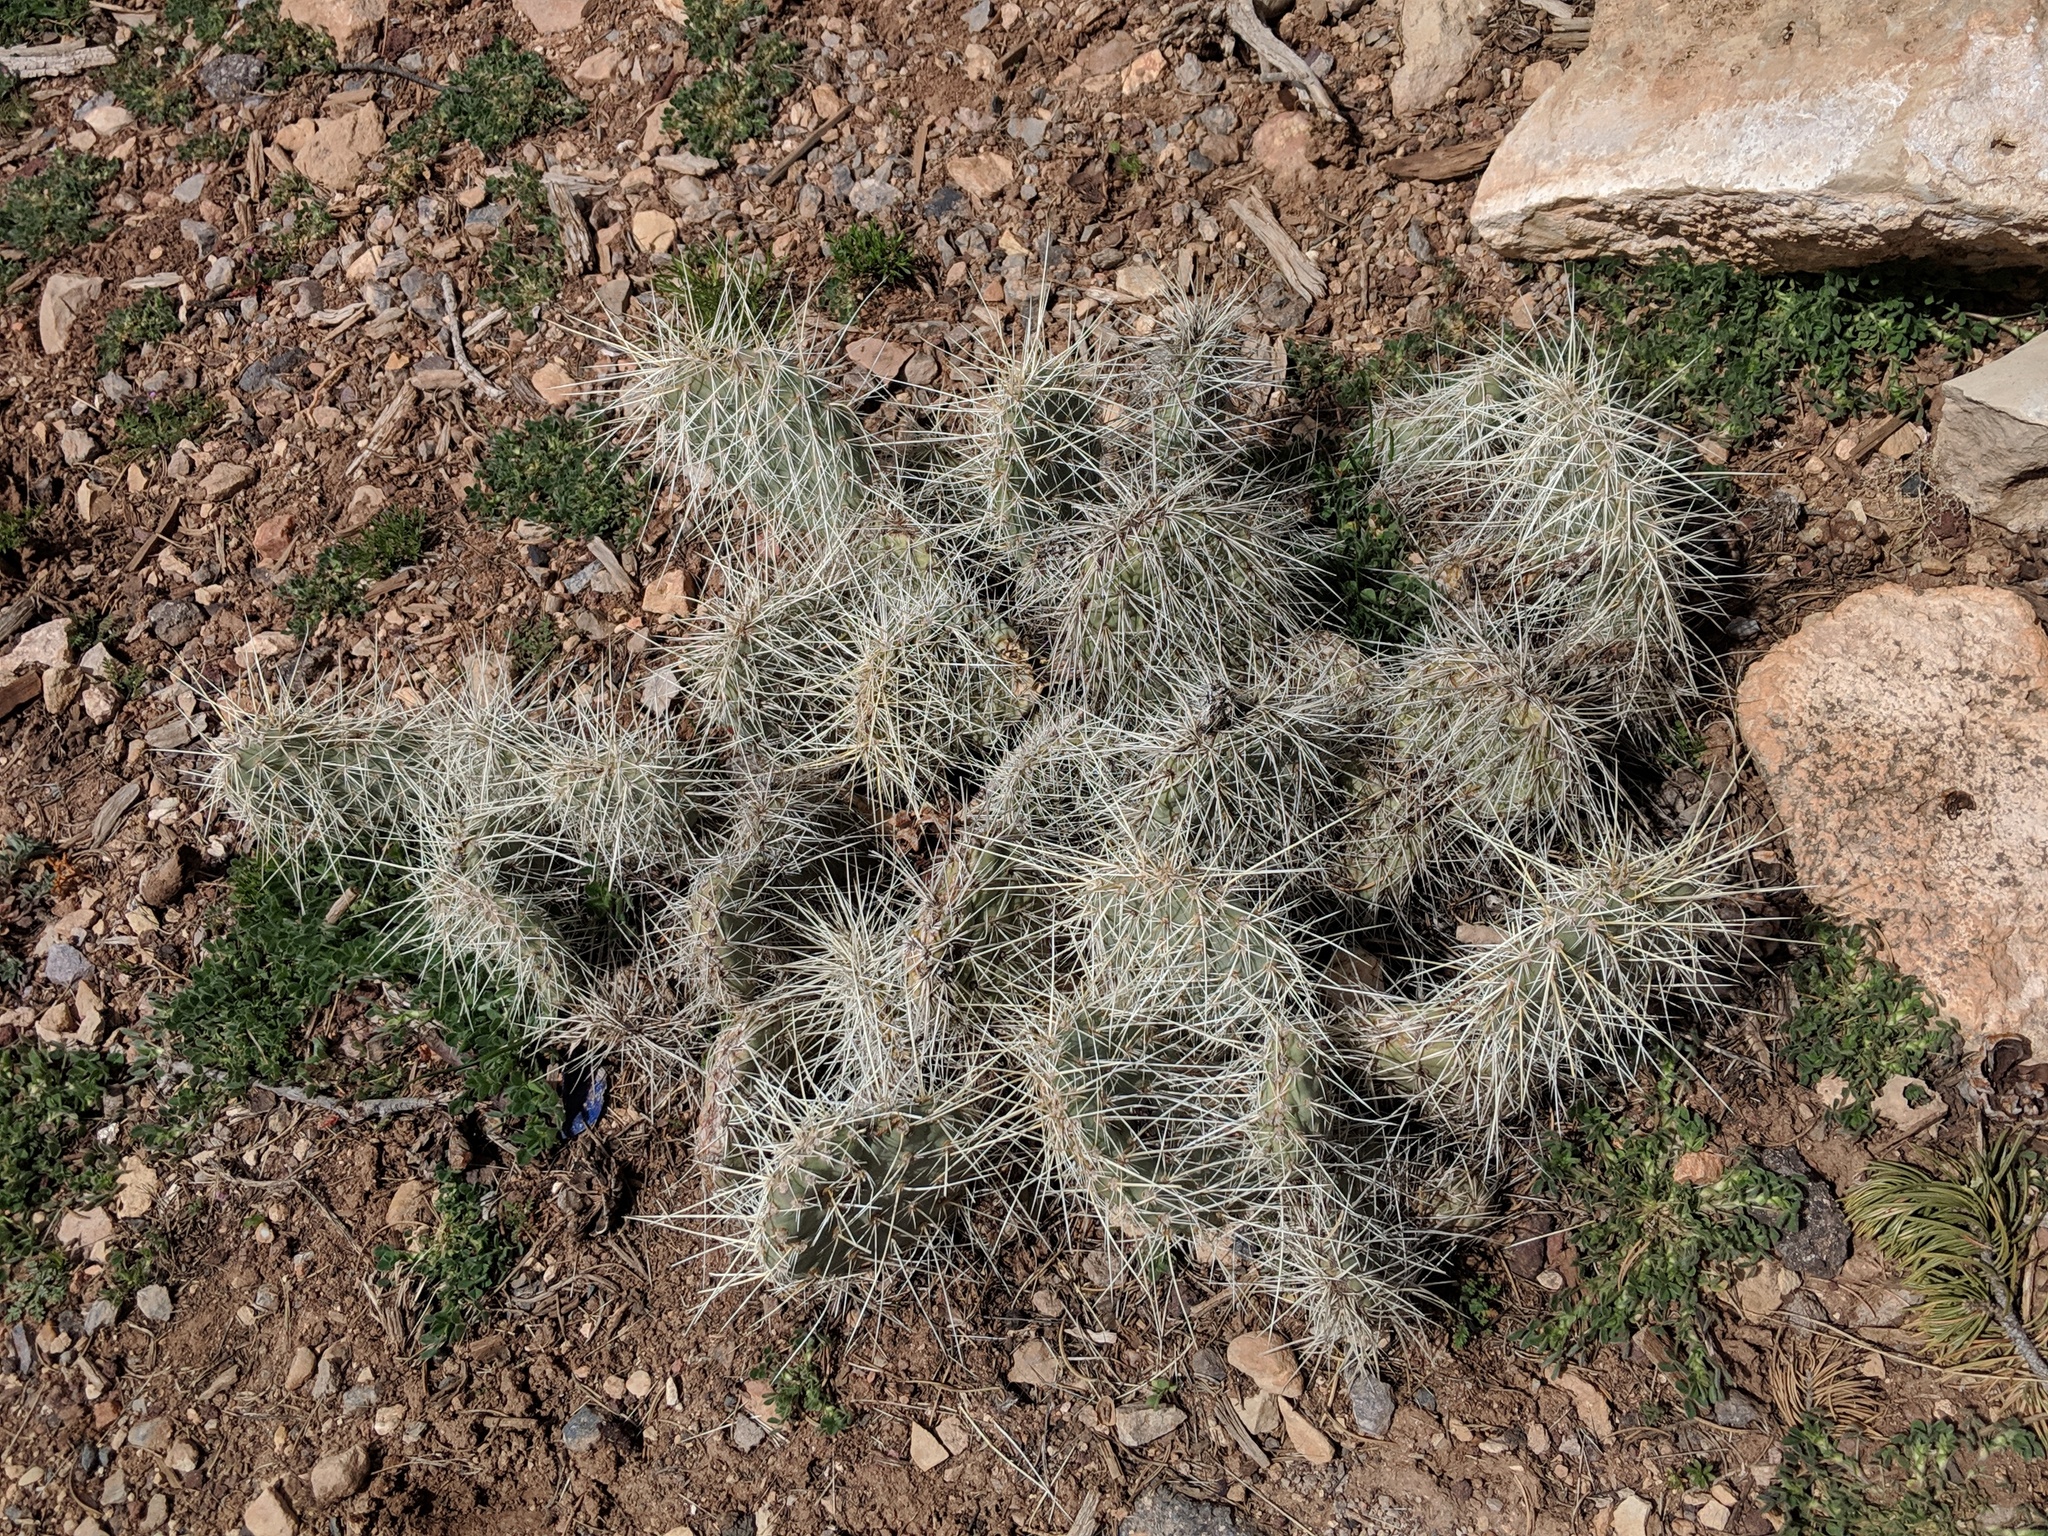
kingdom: Plantae
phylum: Tracheophyta
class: Magnoliopsida
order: Caryophyllales
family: Cactaceae
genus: Opuntia
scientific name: Opuntia polyacantha
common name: Plains prickly-pear
